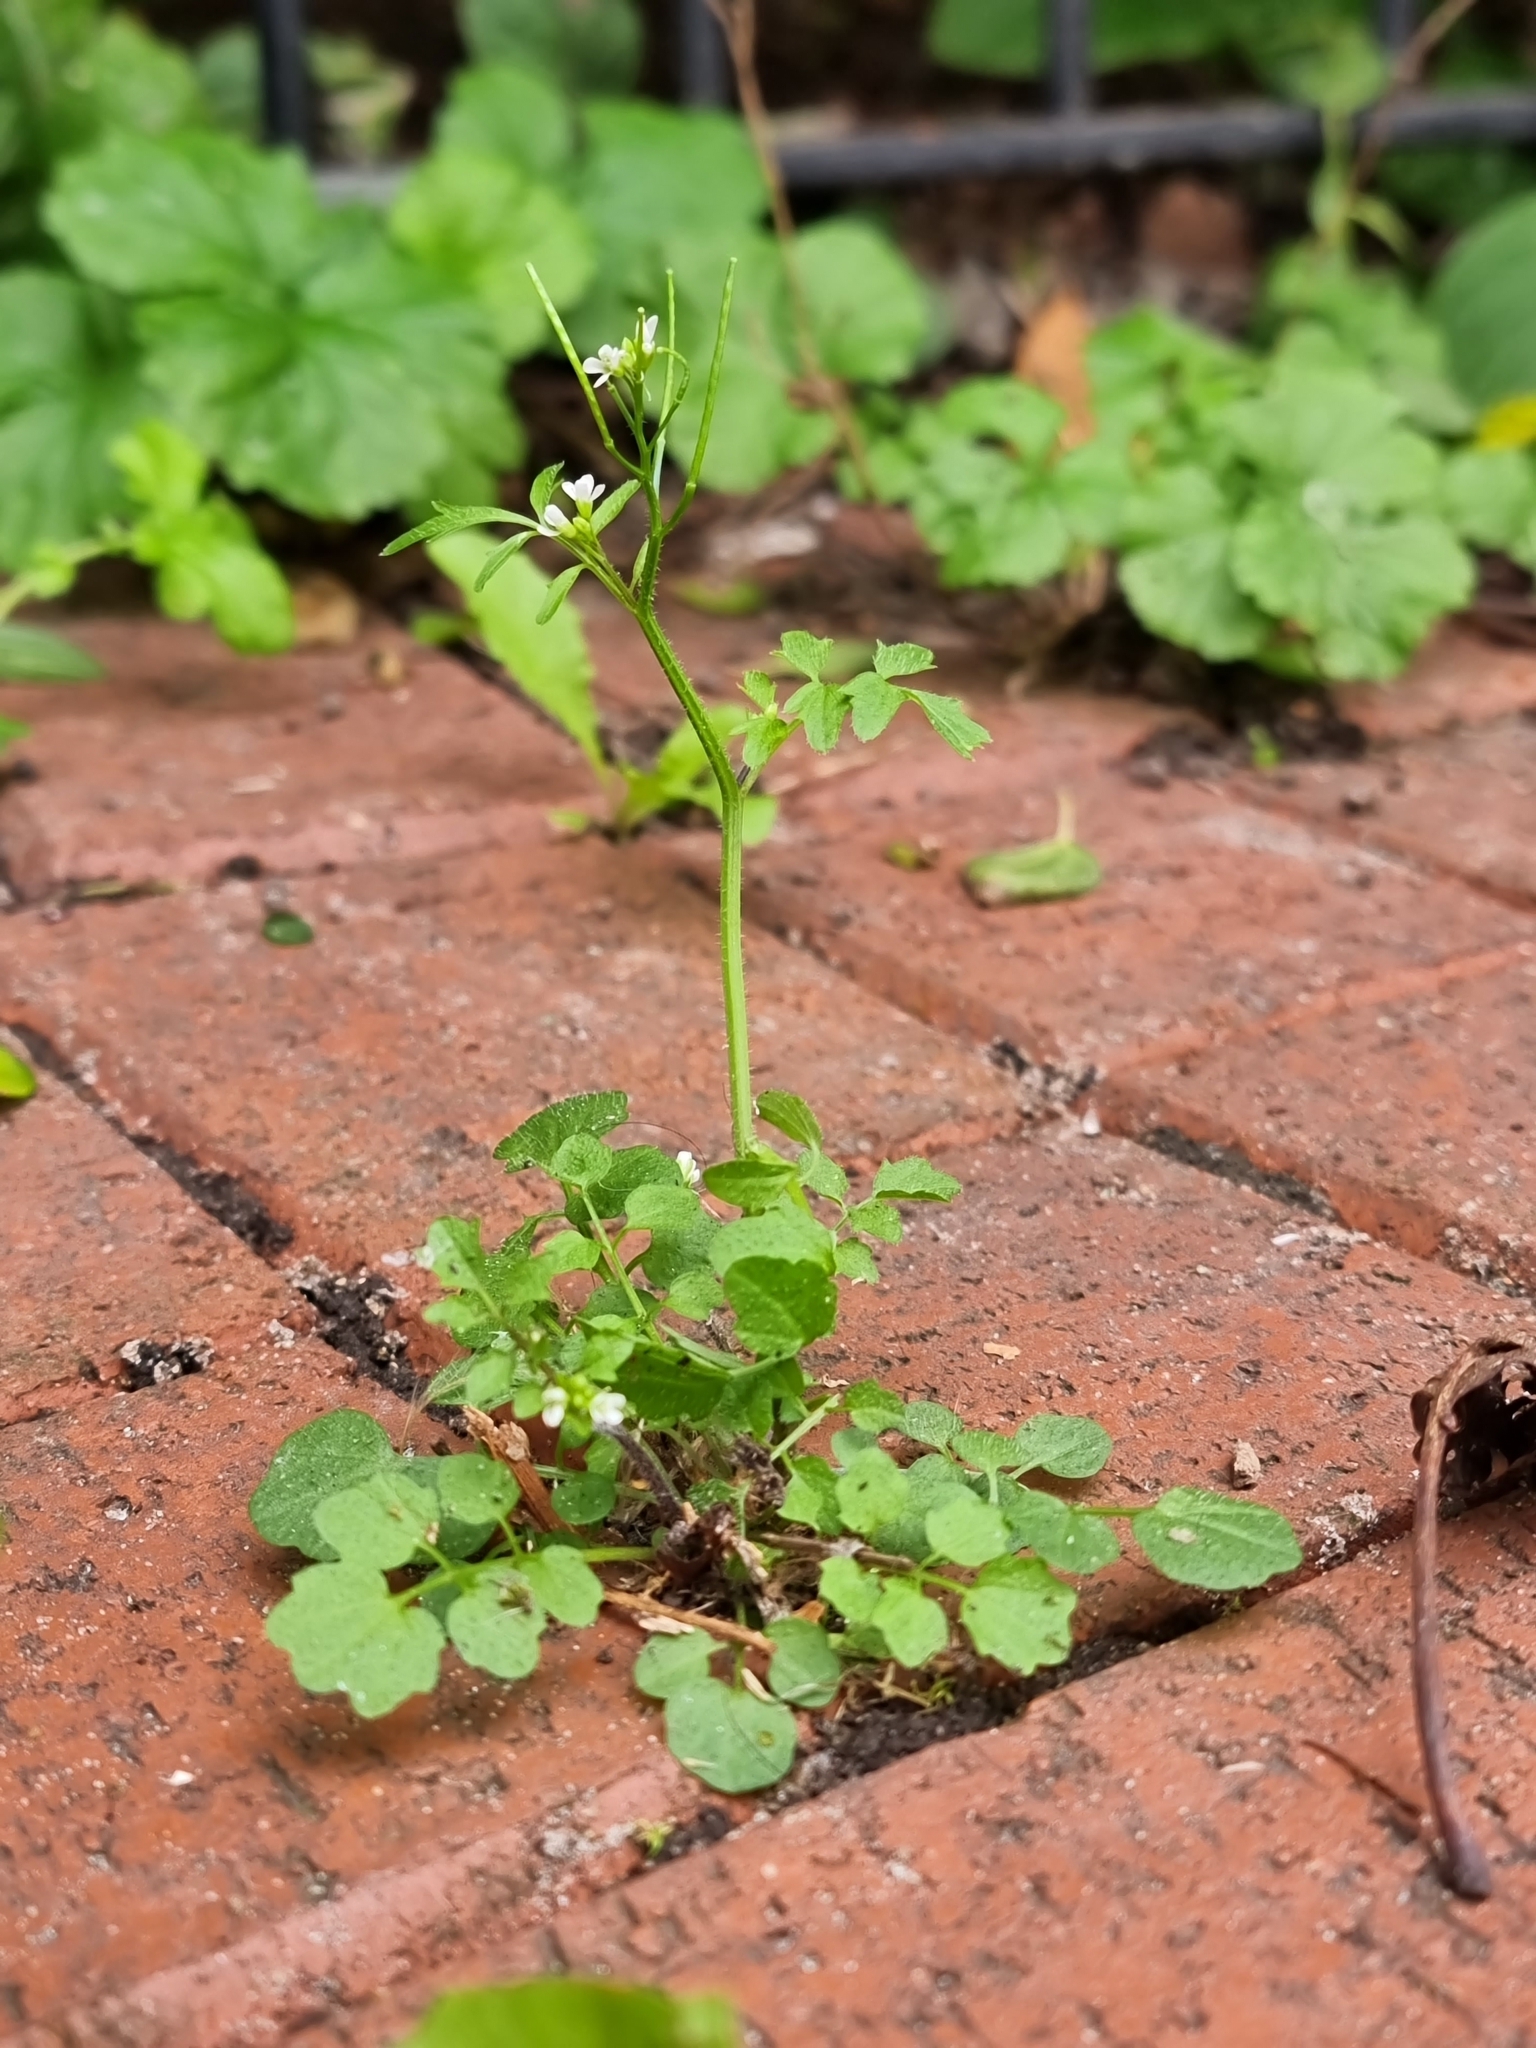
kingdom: Plantae
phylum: Tracheophyta
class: Magnoliopsida
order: Brassicales
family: Brassicaceae
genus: Cardamine
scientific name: Cardamine flexuosa
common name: Woodland bittercress
